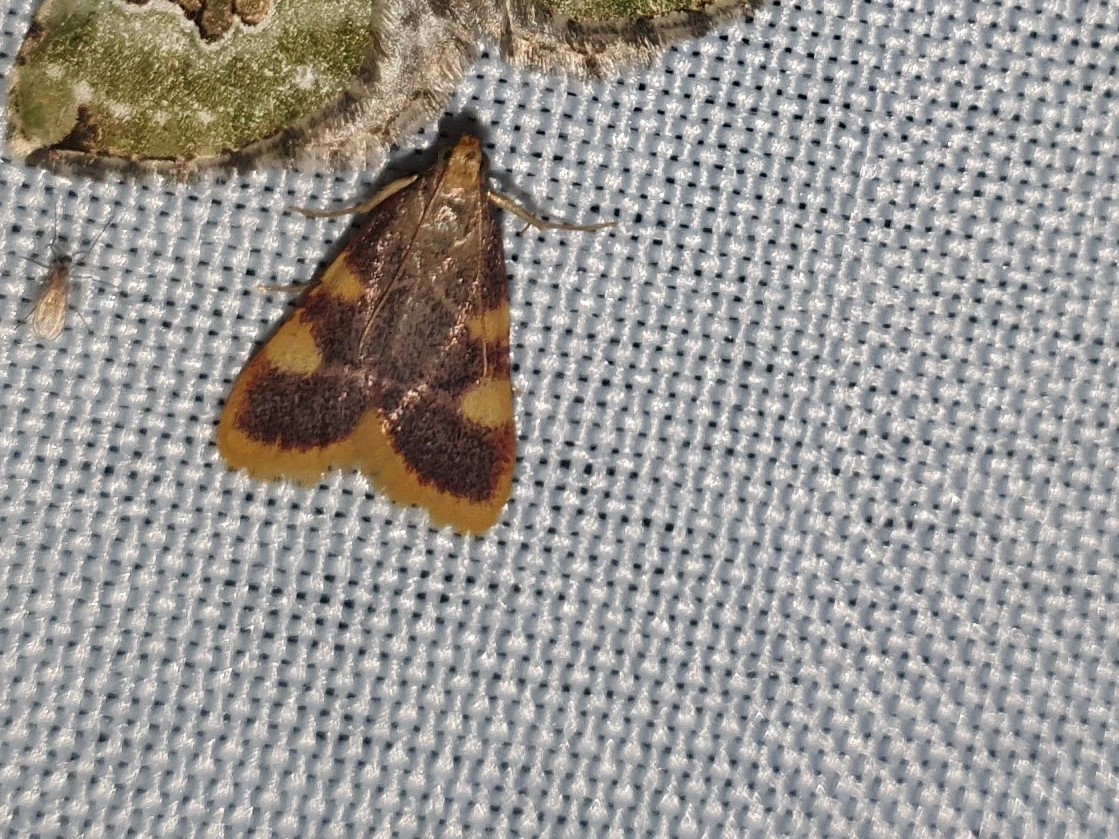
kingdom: Animalia
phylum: Arthropoda
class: Insecta
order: Lepidoptera
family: Pyralidae
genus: Hypsopygia
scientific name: Hypsopygia costalis
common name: Gold triangle
